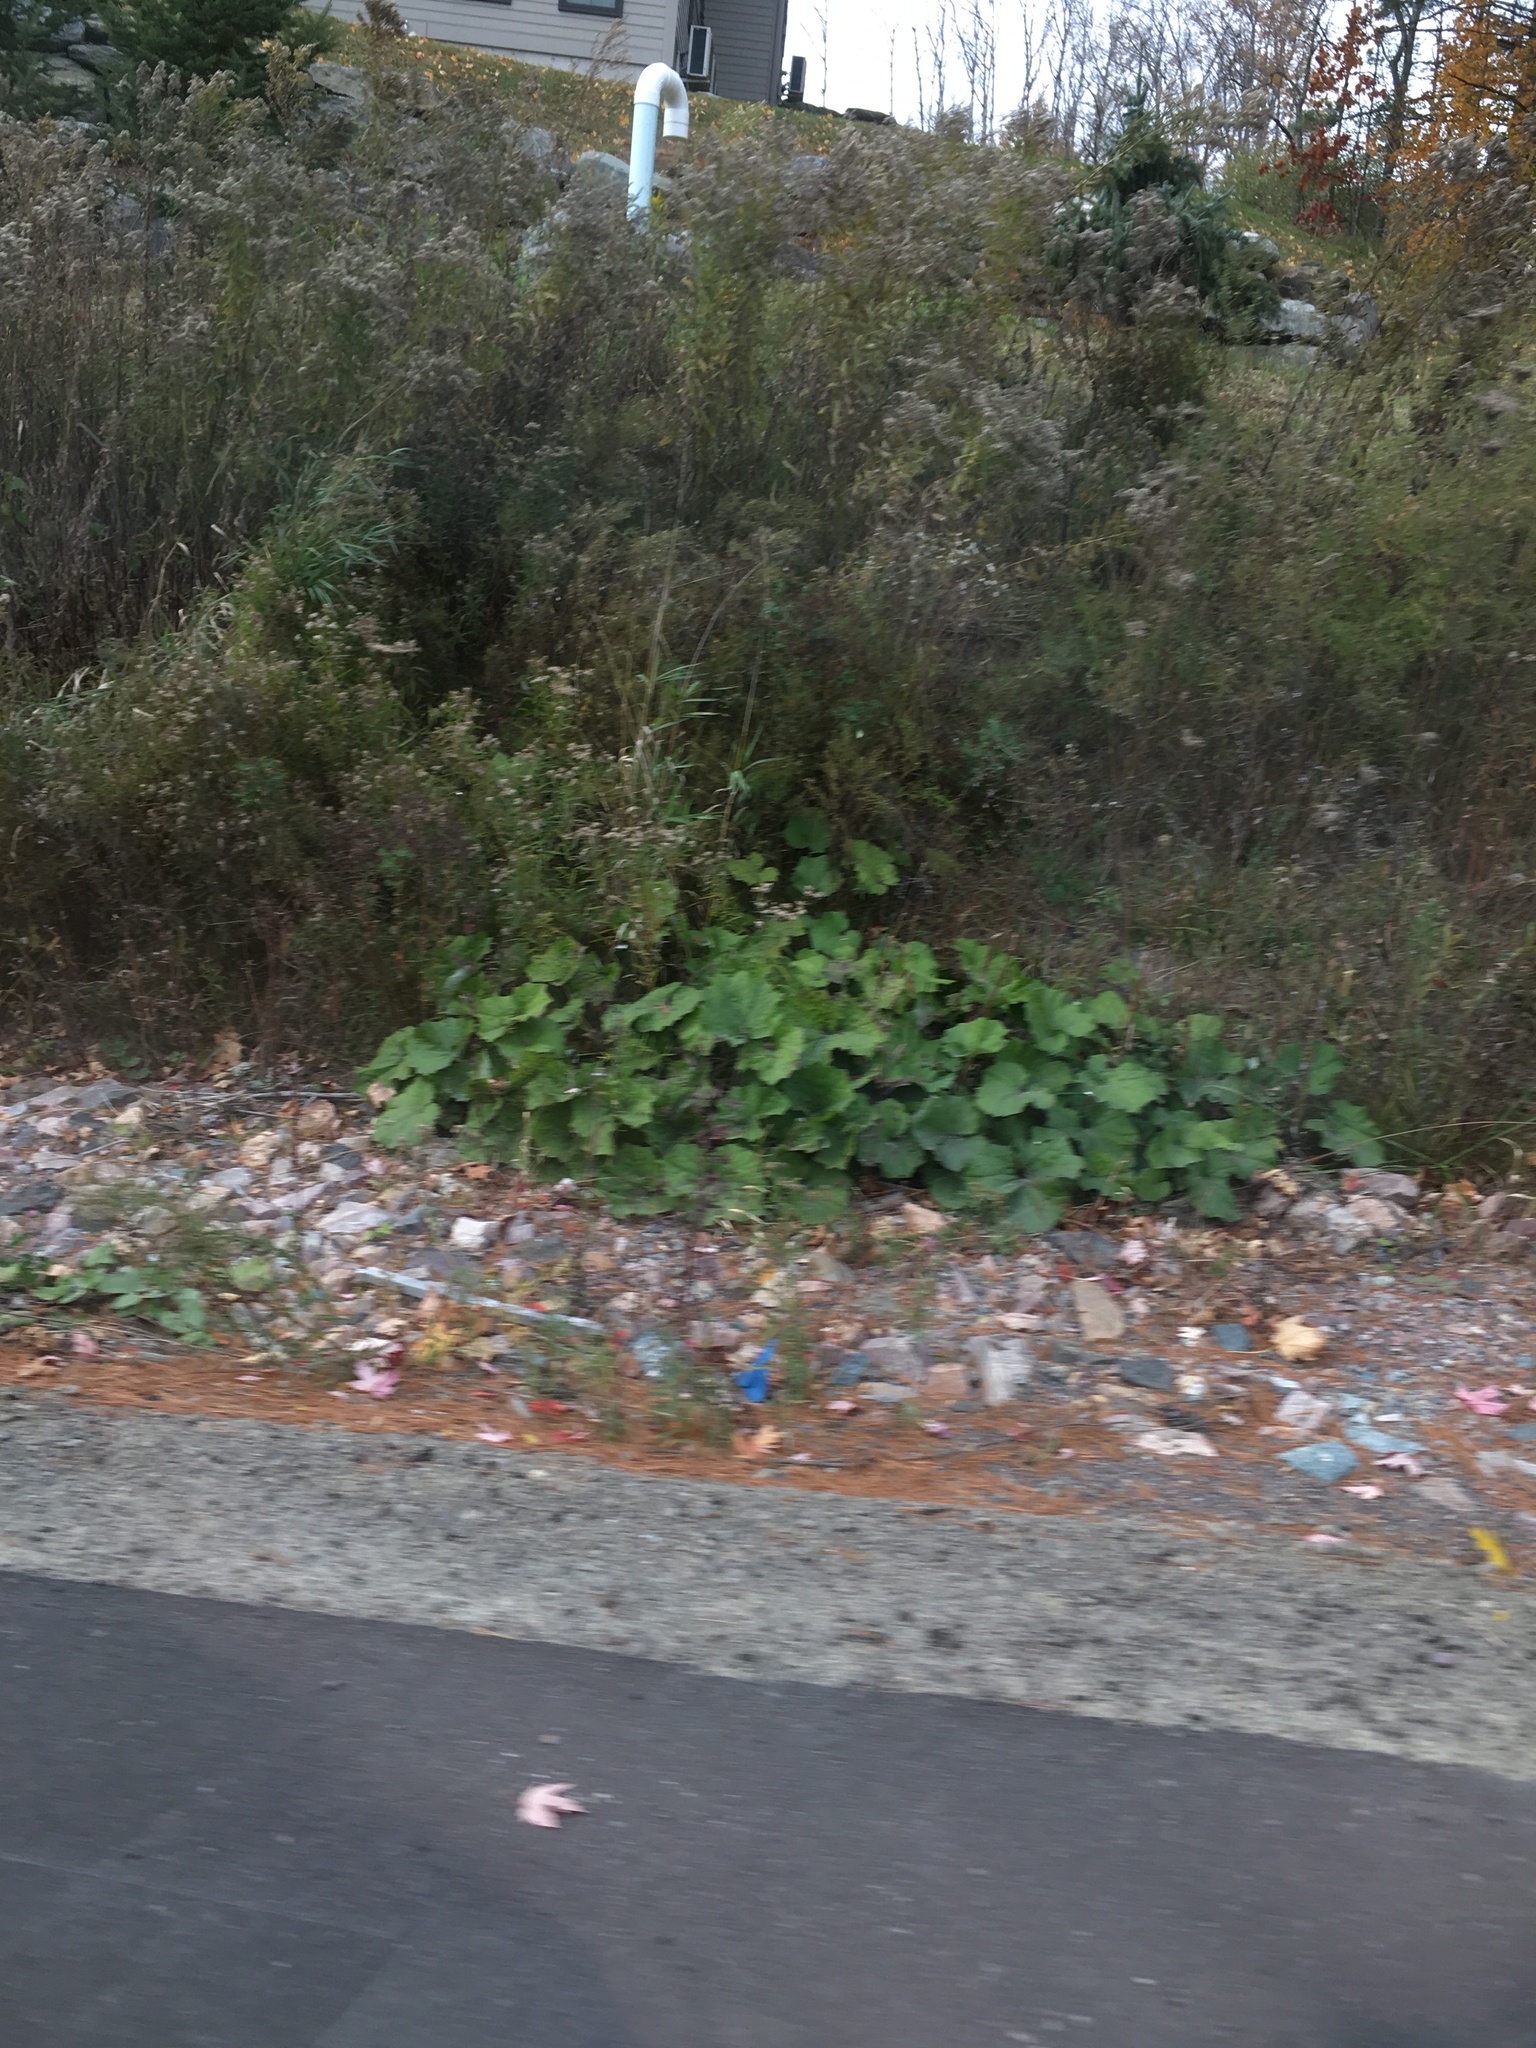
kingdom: Plantae
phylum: Tracheophyta
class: Magnoliopsida
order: Asterales
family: Asteraceae
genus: Tussilago
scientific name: Tussilago farfara
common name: Coltsfoot
